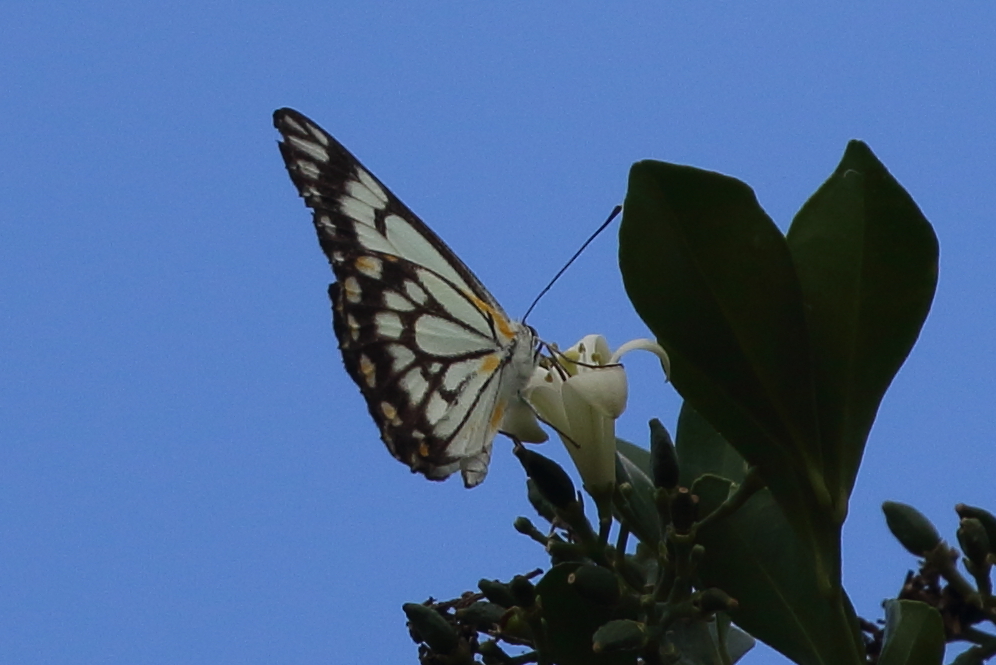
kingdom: Animalia
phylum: Arthropoda
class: Insecta
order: Lepidoptera
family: Pieridae
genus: Belenois
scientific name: Belenois java
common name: Caper white
